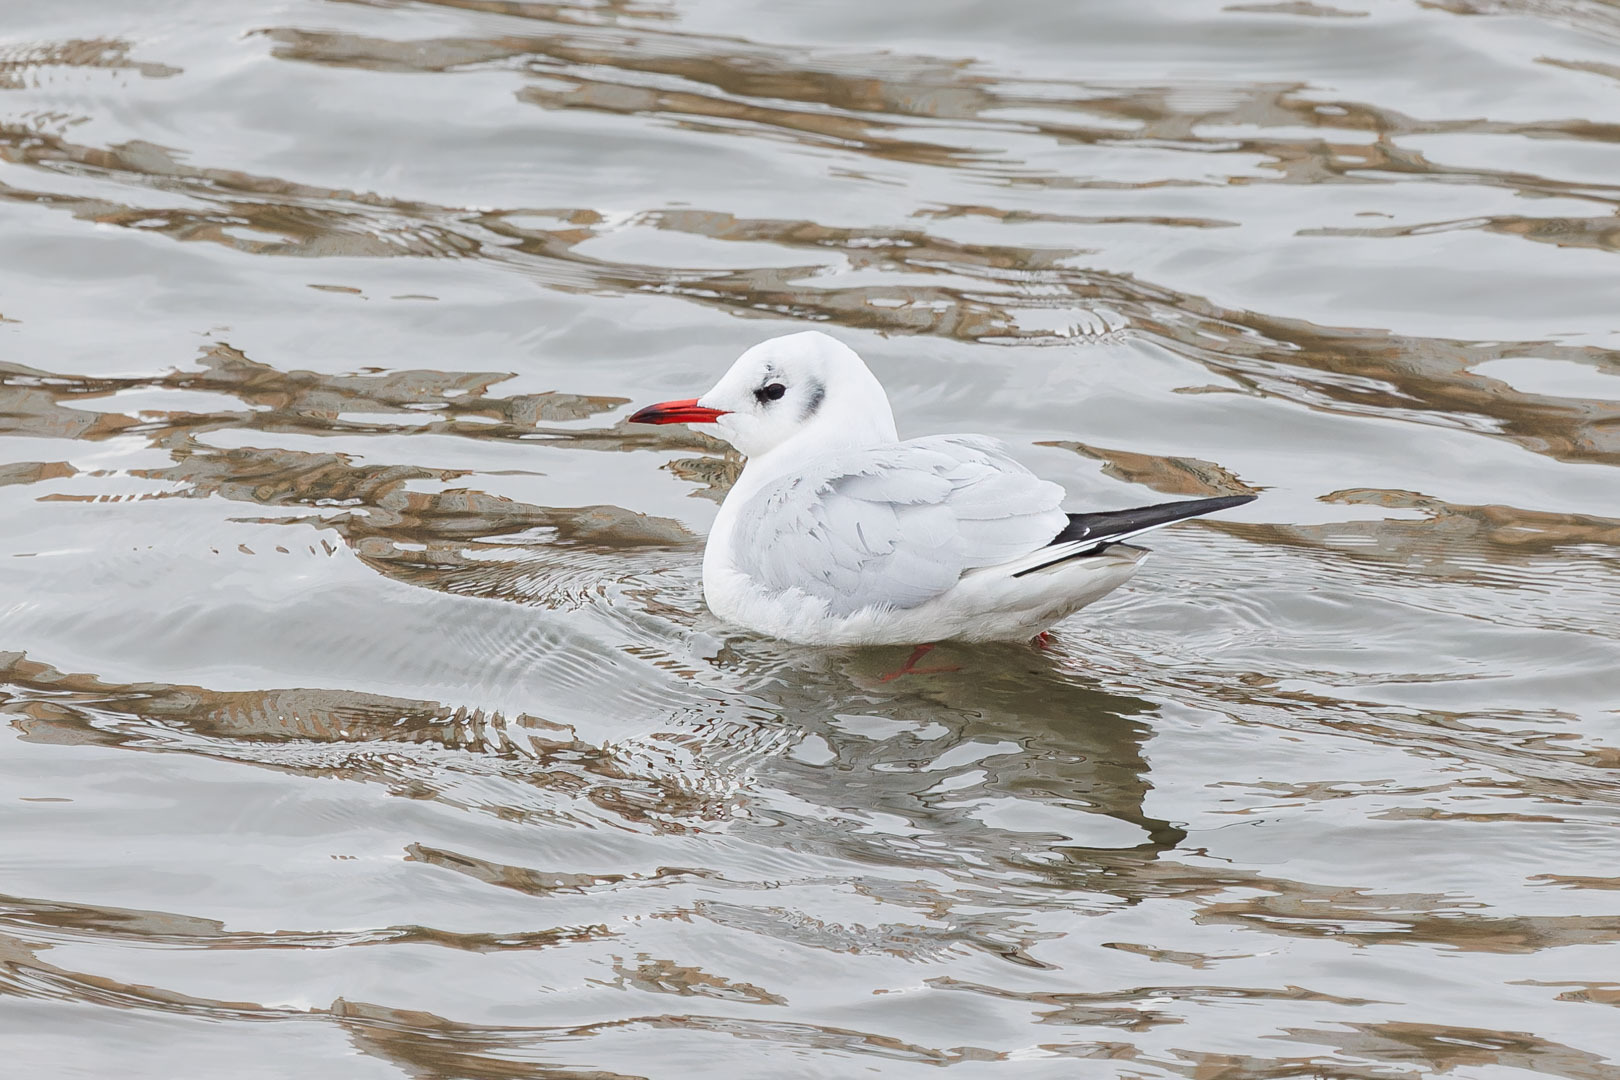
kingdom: Animalia
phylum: Chordata
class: Aves
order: Charadriiformes
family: Laridae
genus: Chroicocephalus
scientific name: Chroicocephalus ridibundus
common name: Black-headed gull
